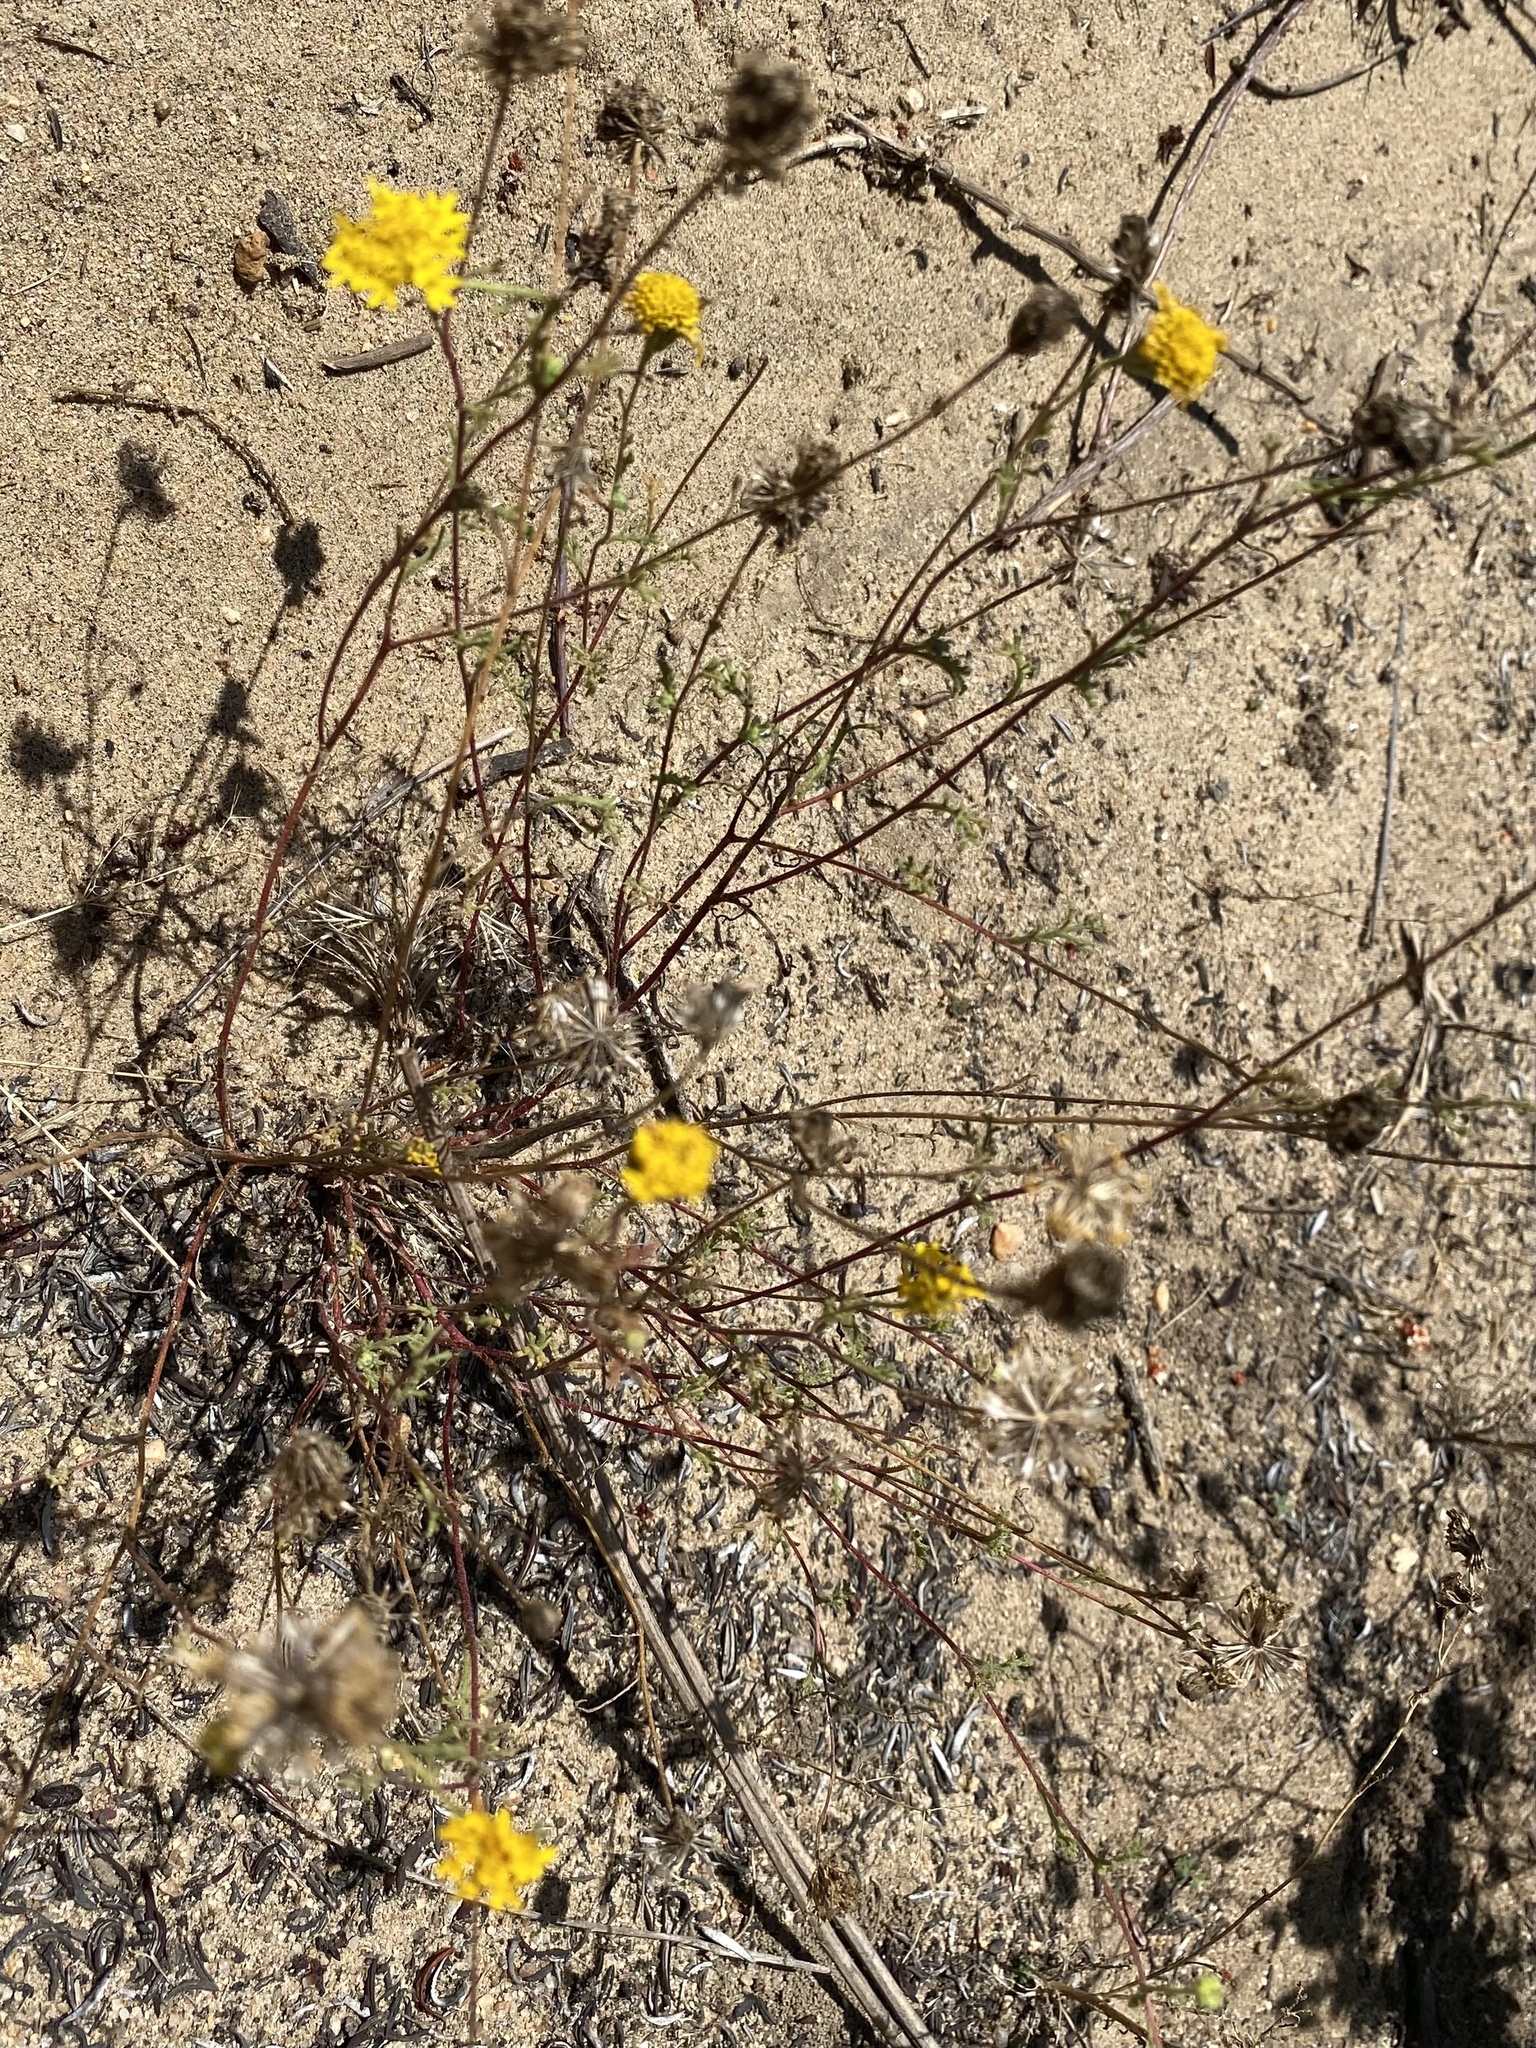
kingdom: Plantae
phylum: Tracheophyta
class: Magnoliopsida
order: Asterales
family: Asteraceae
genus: Chaenactis
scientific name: Chaenactis glabriuscula
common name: Yellow pincushion
